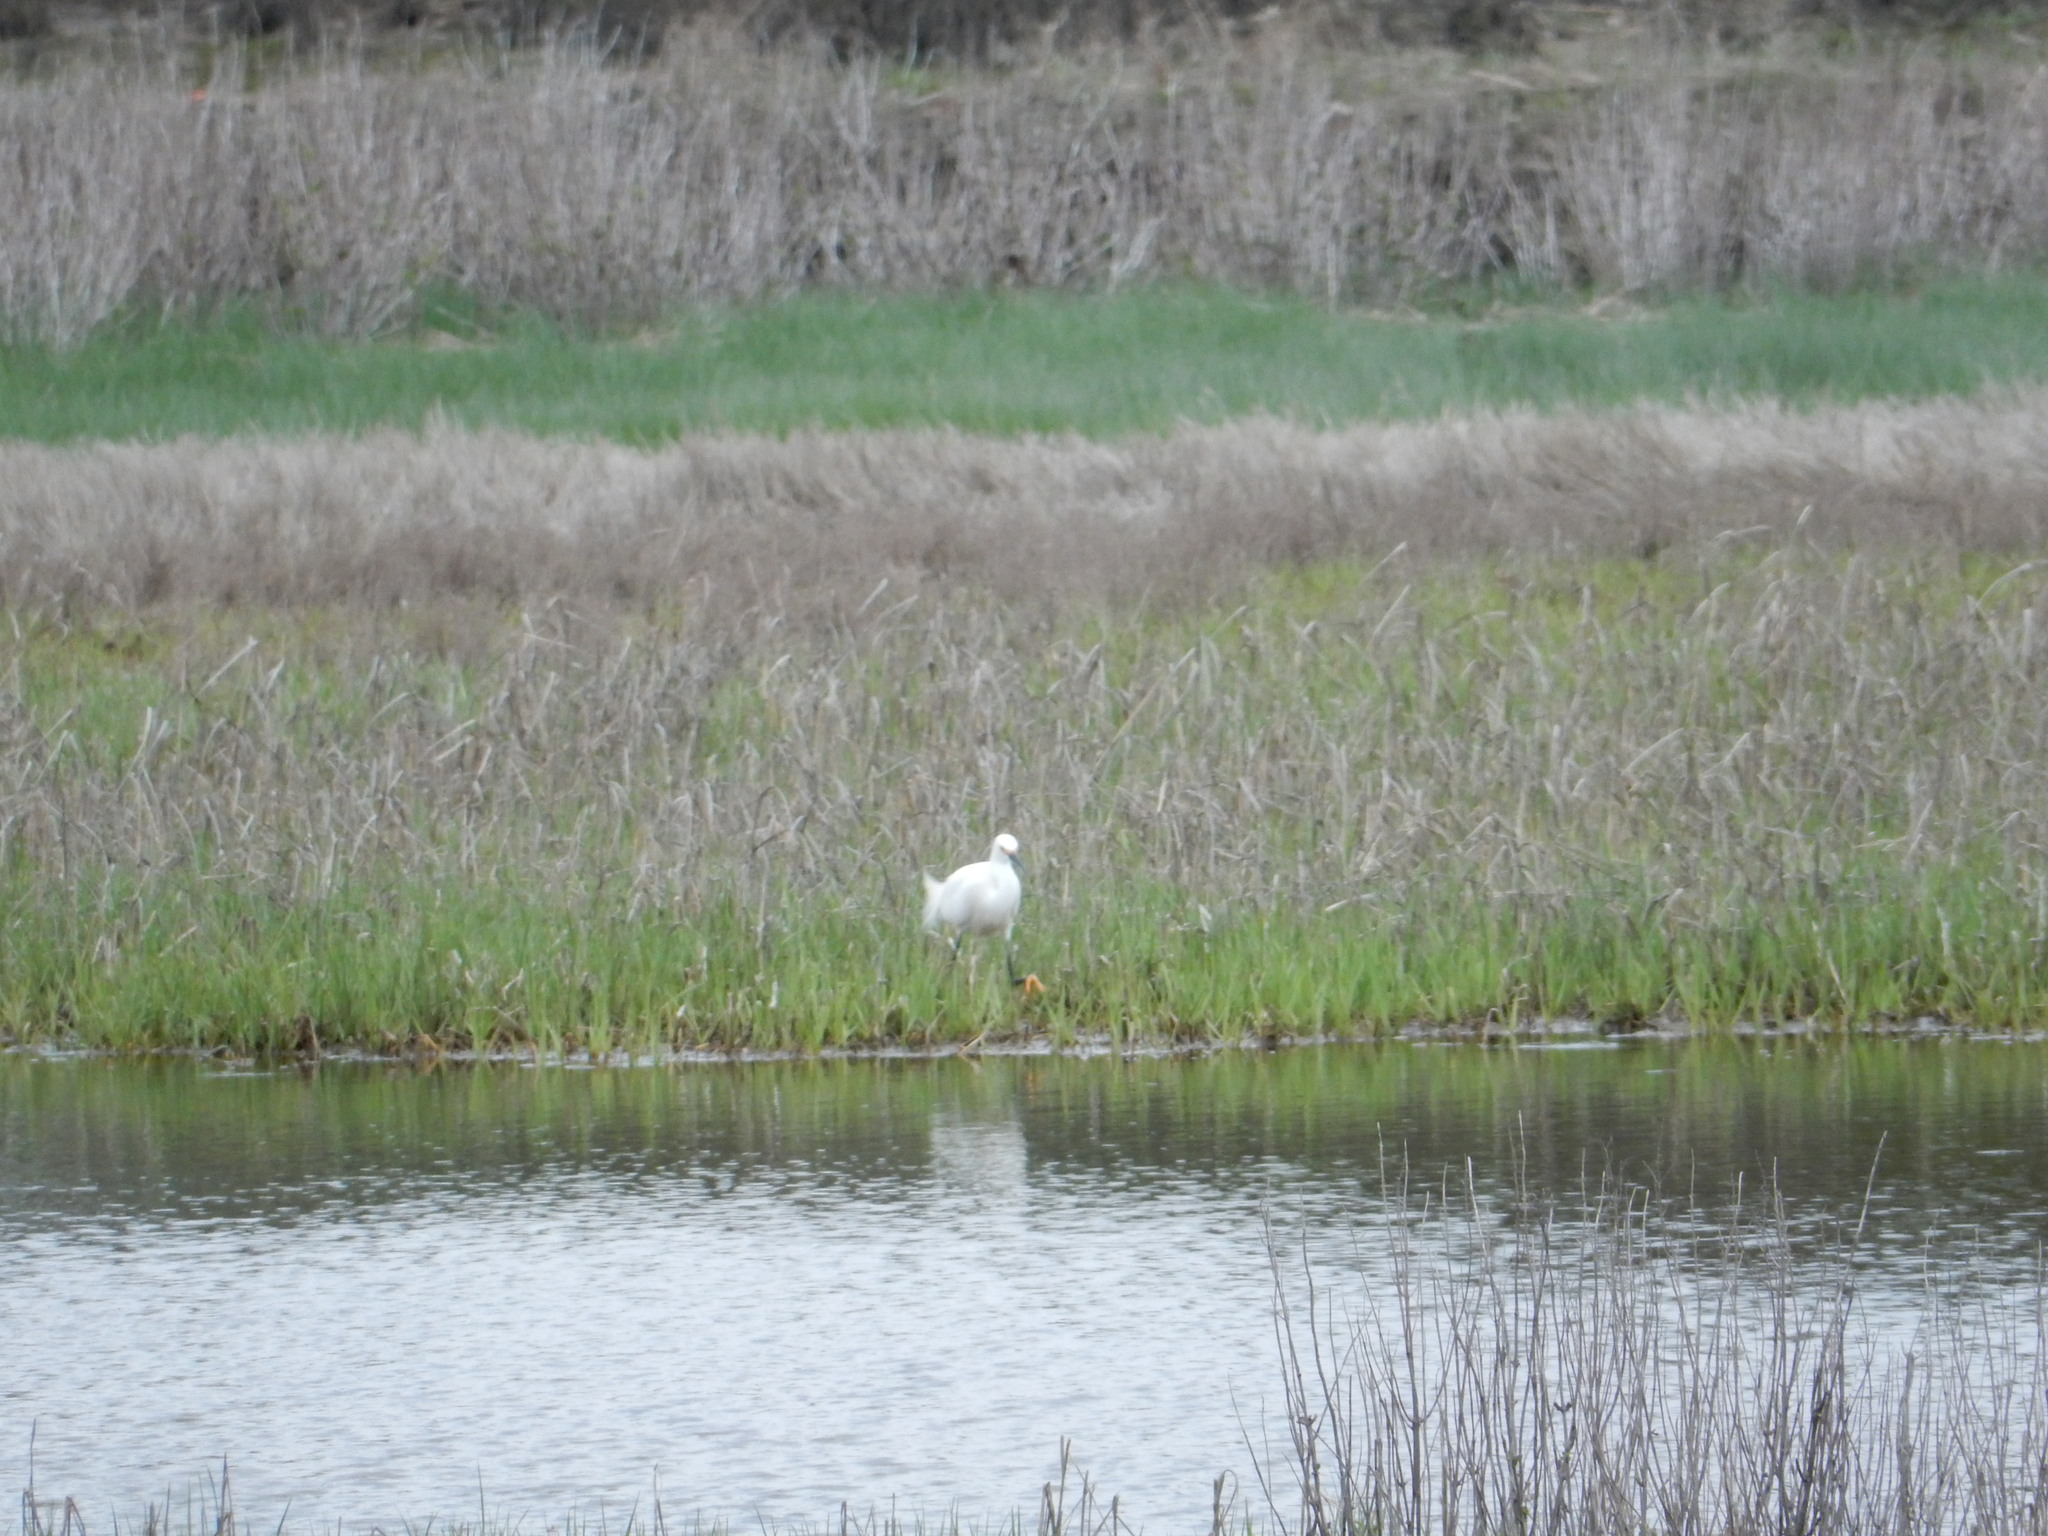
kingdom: Animalia
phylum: Chordata
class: Aves
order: Pelecaniformes
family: Ardeidae
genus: Egretta
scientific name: Egretta thula
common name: Snowy egret
